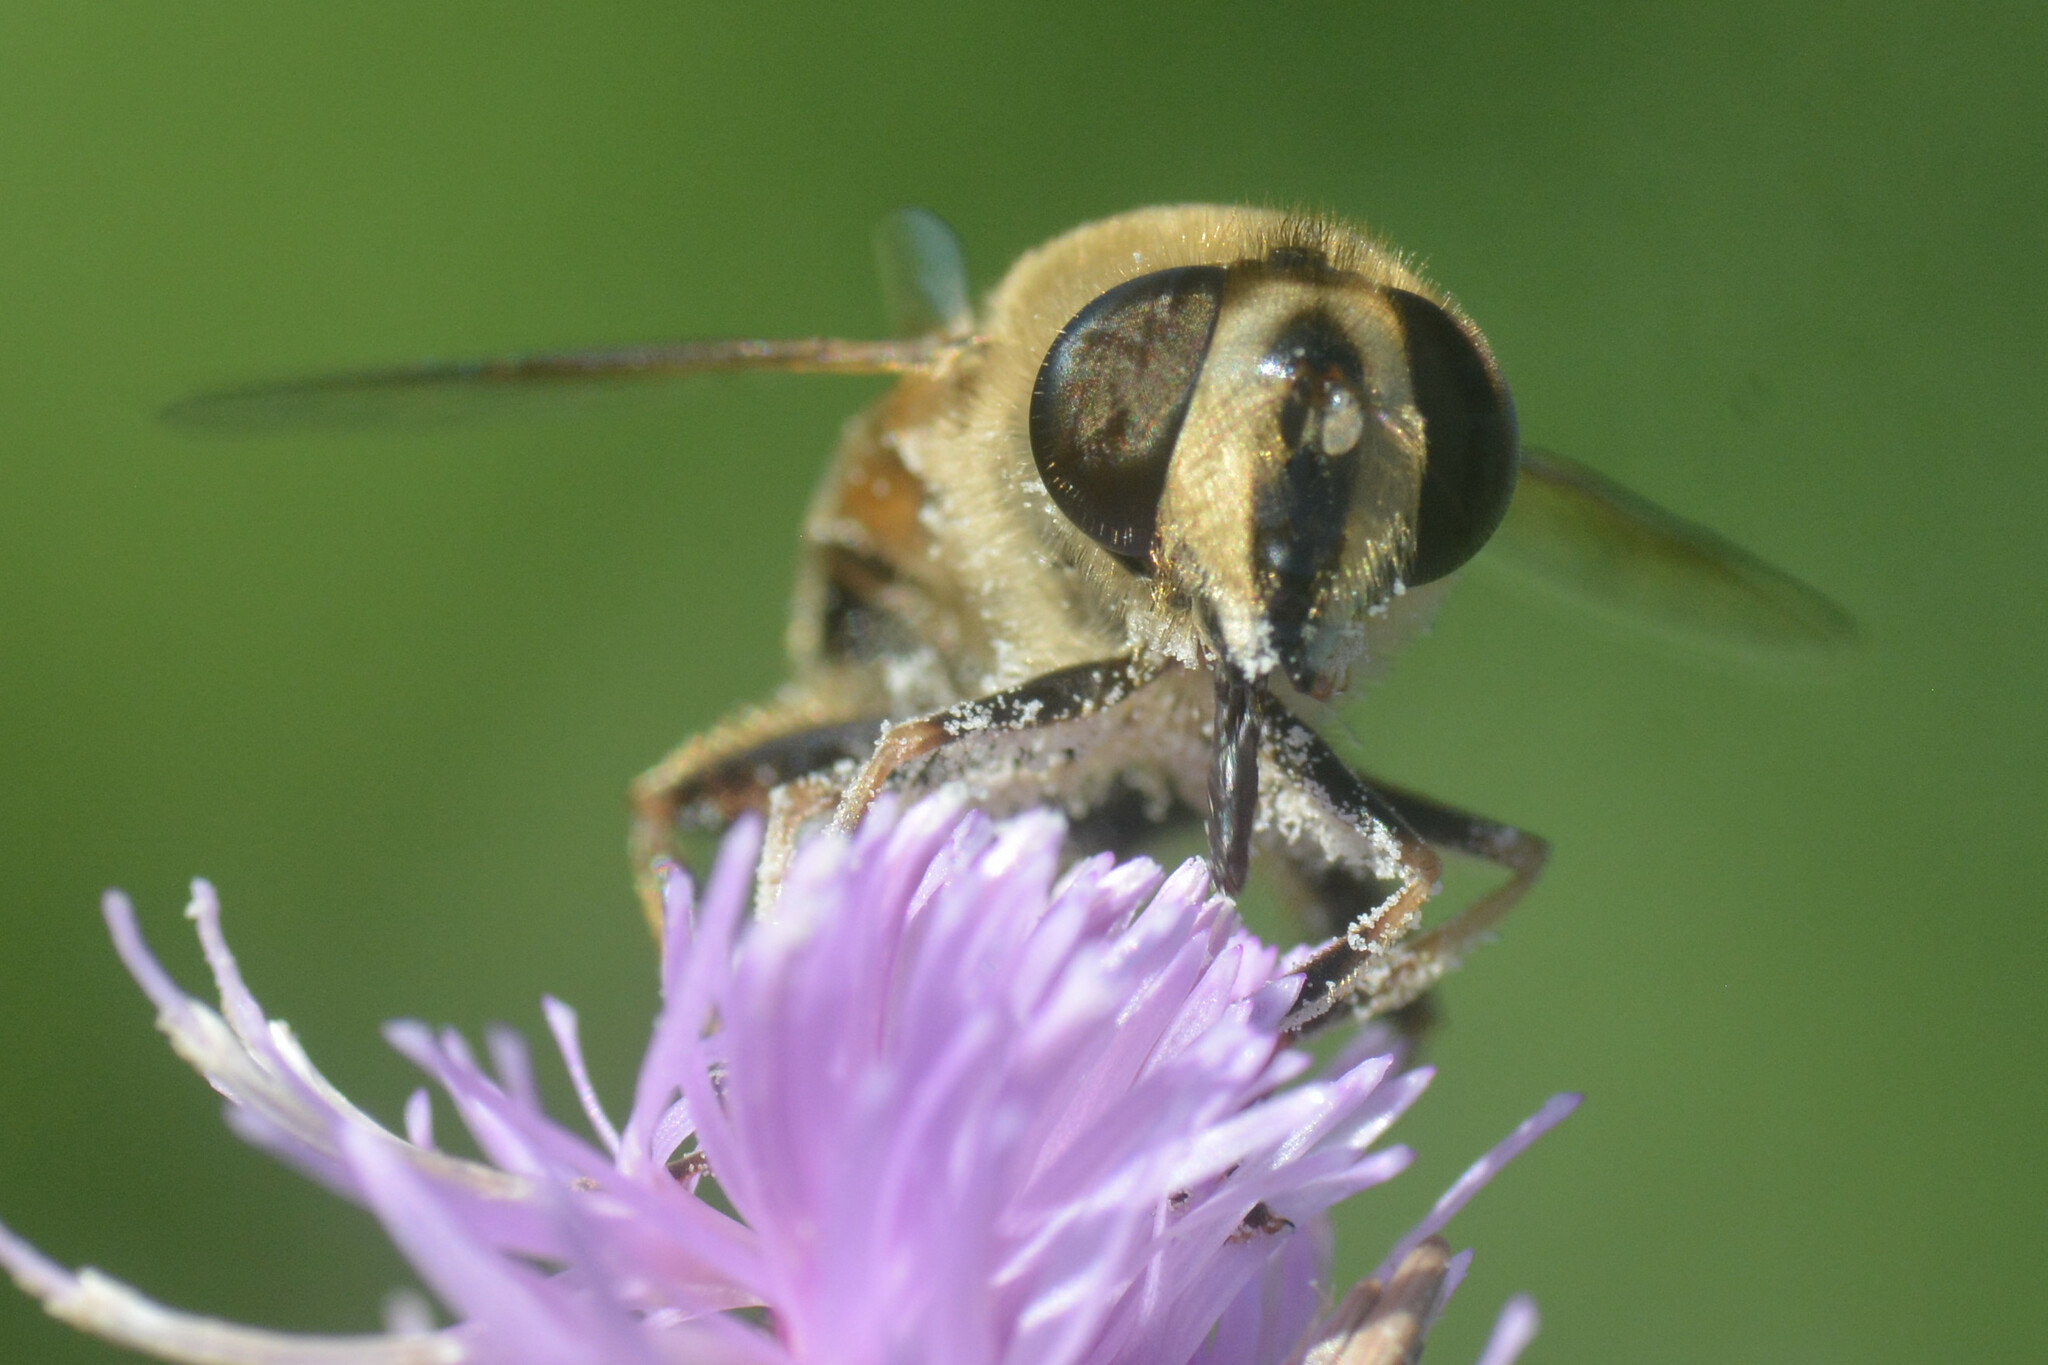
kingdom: Animalia
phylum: Arthropoda
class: Insecta
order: Diptera
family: Syrphidae
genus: Eristalis
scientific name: Eristalis tenax
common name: Drone fly
